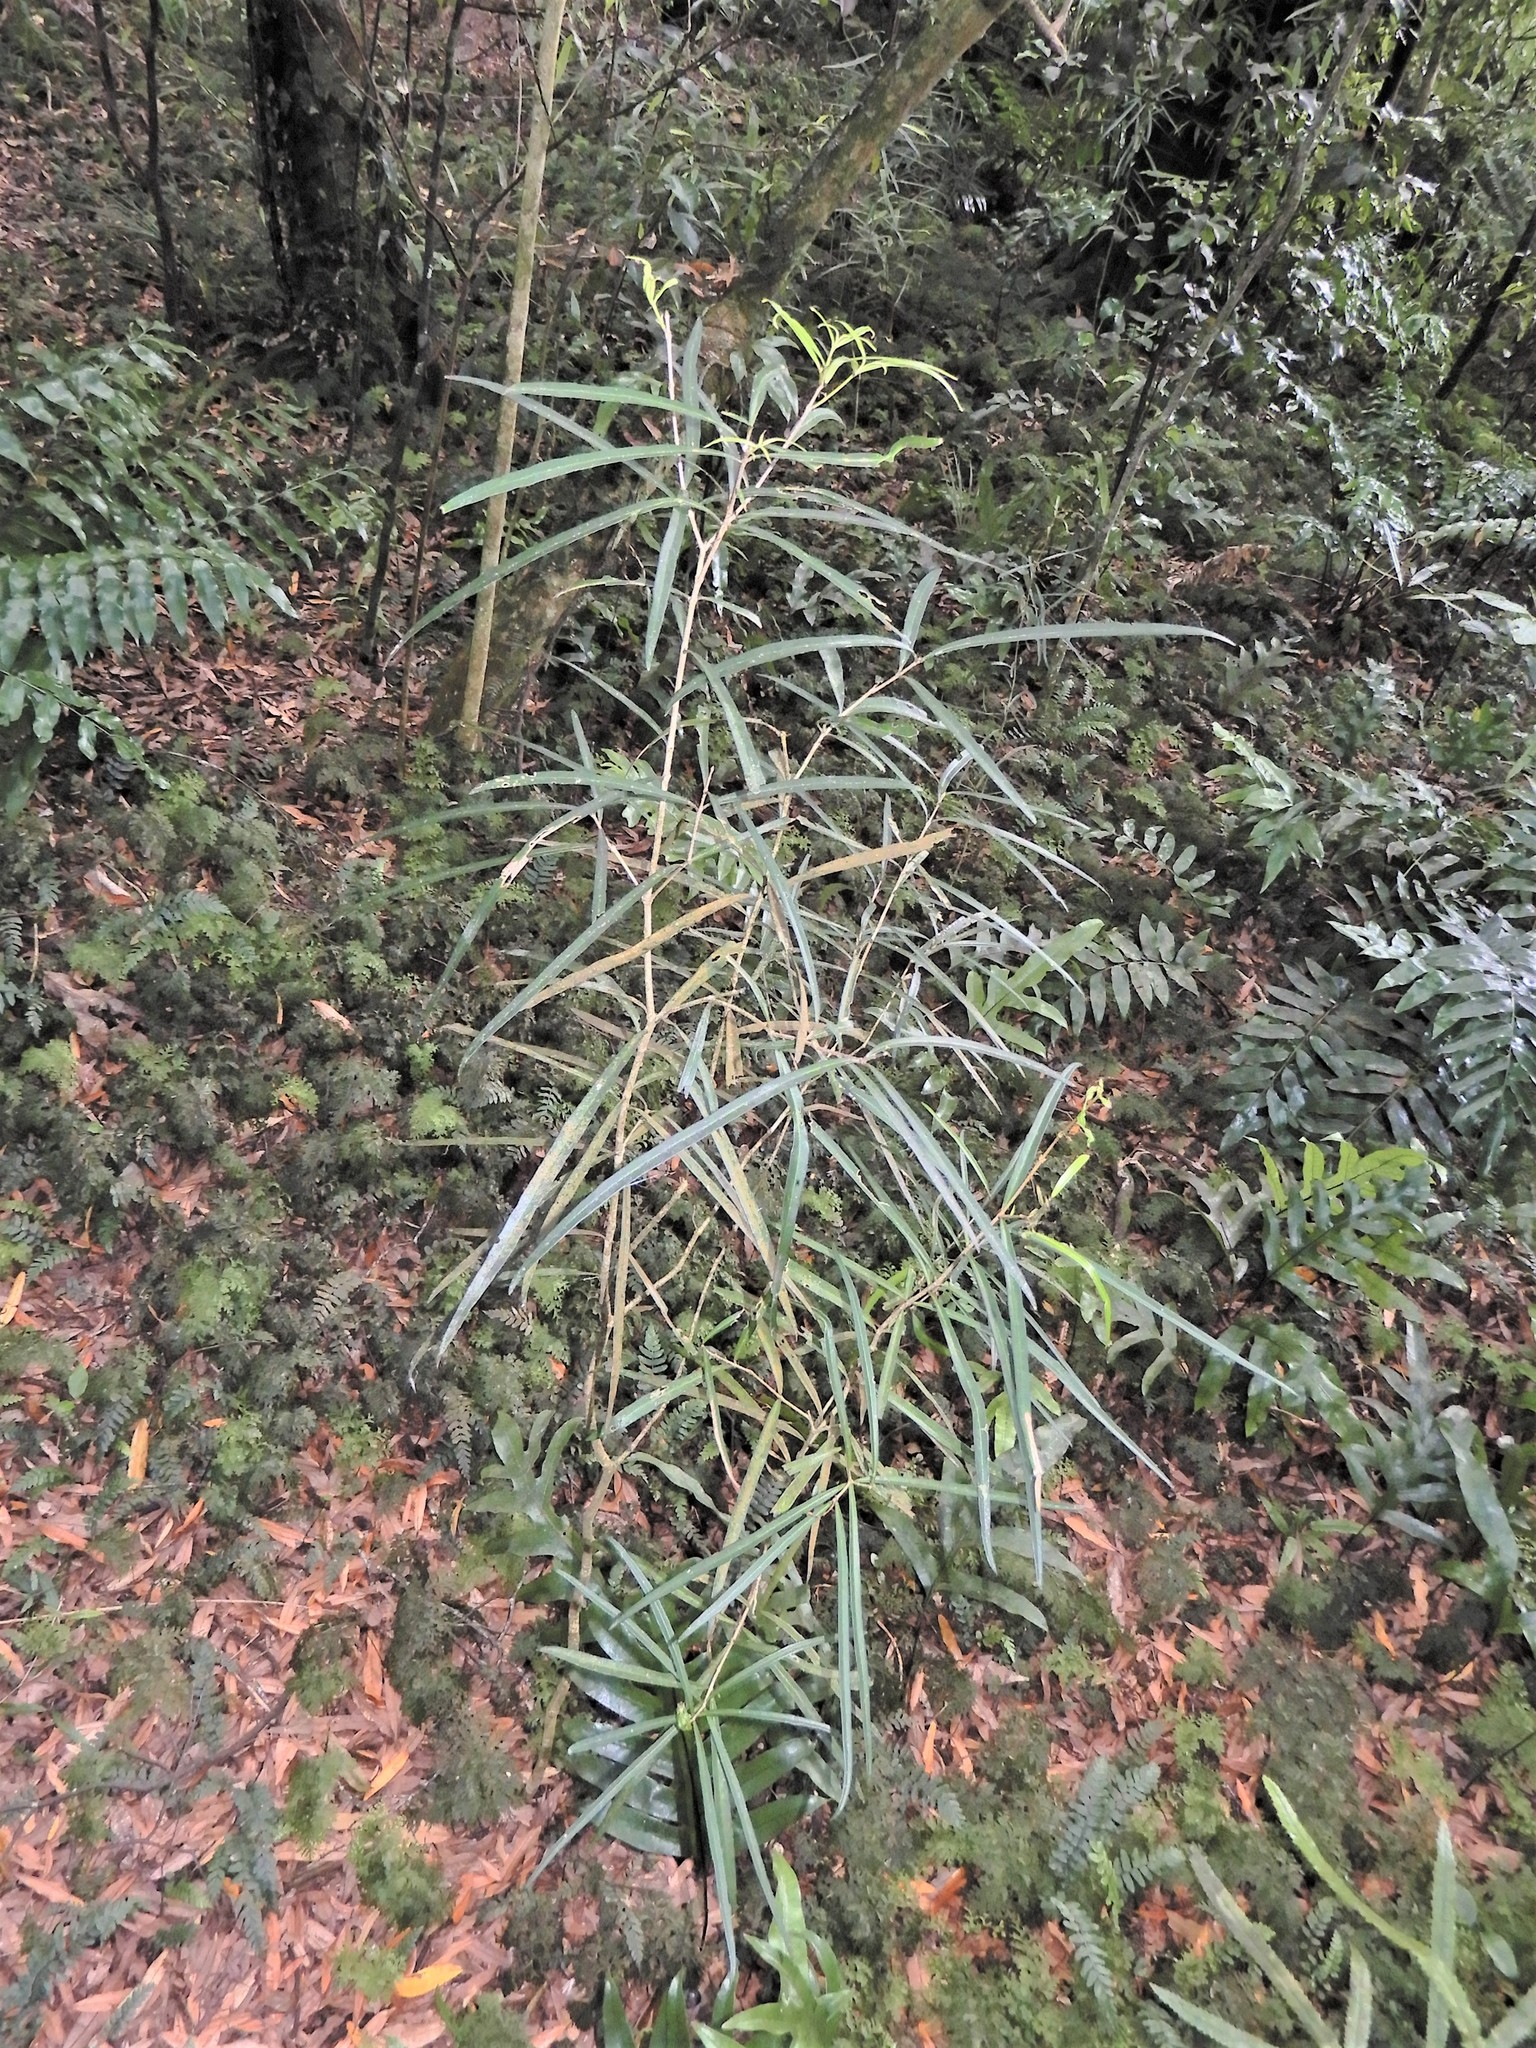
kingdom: Plantae
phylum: Tracheophyta
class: Magnoliopsida
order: Lamiales
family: Oleaceae
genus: Nestegis
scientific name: Nestegis lanceolata
